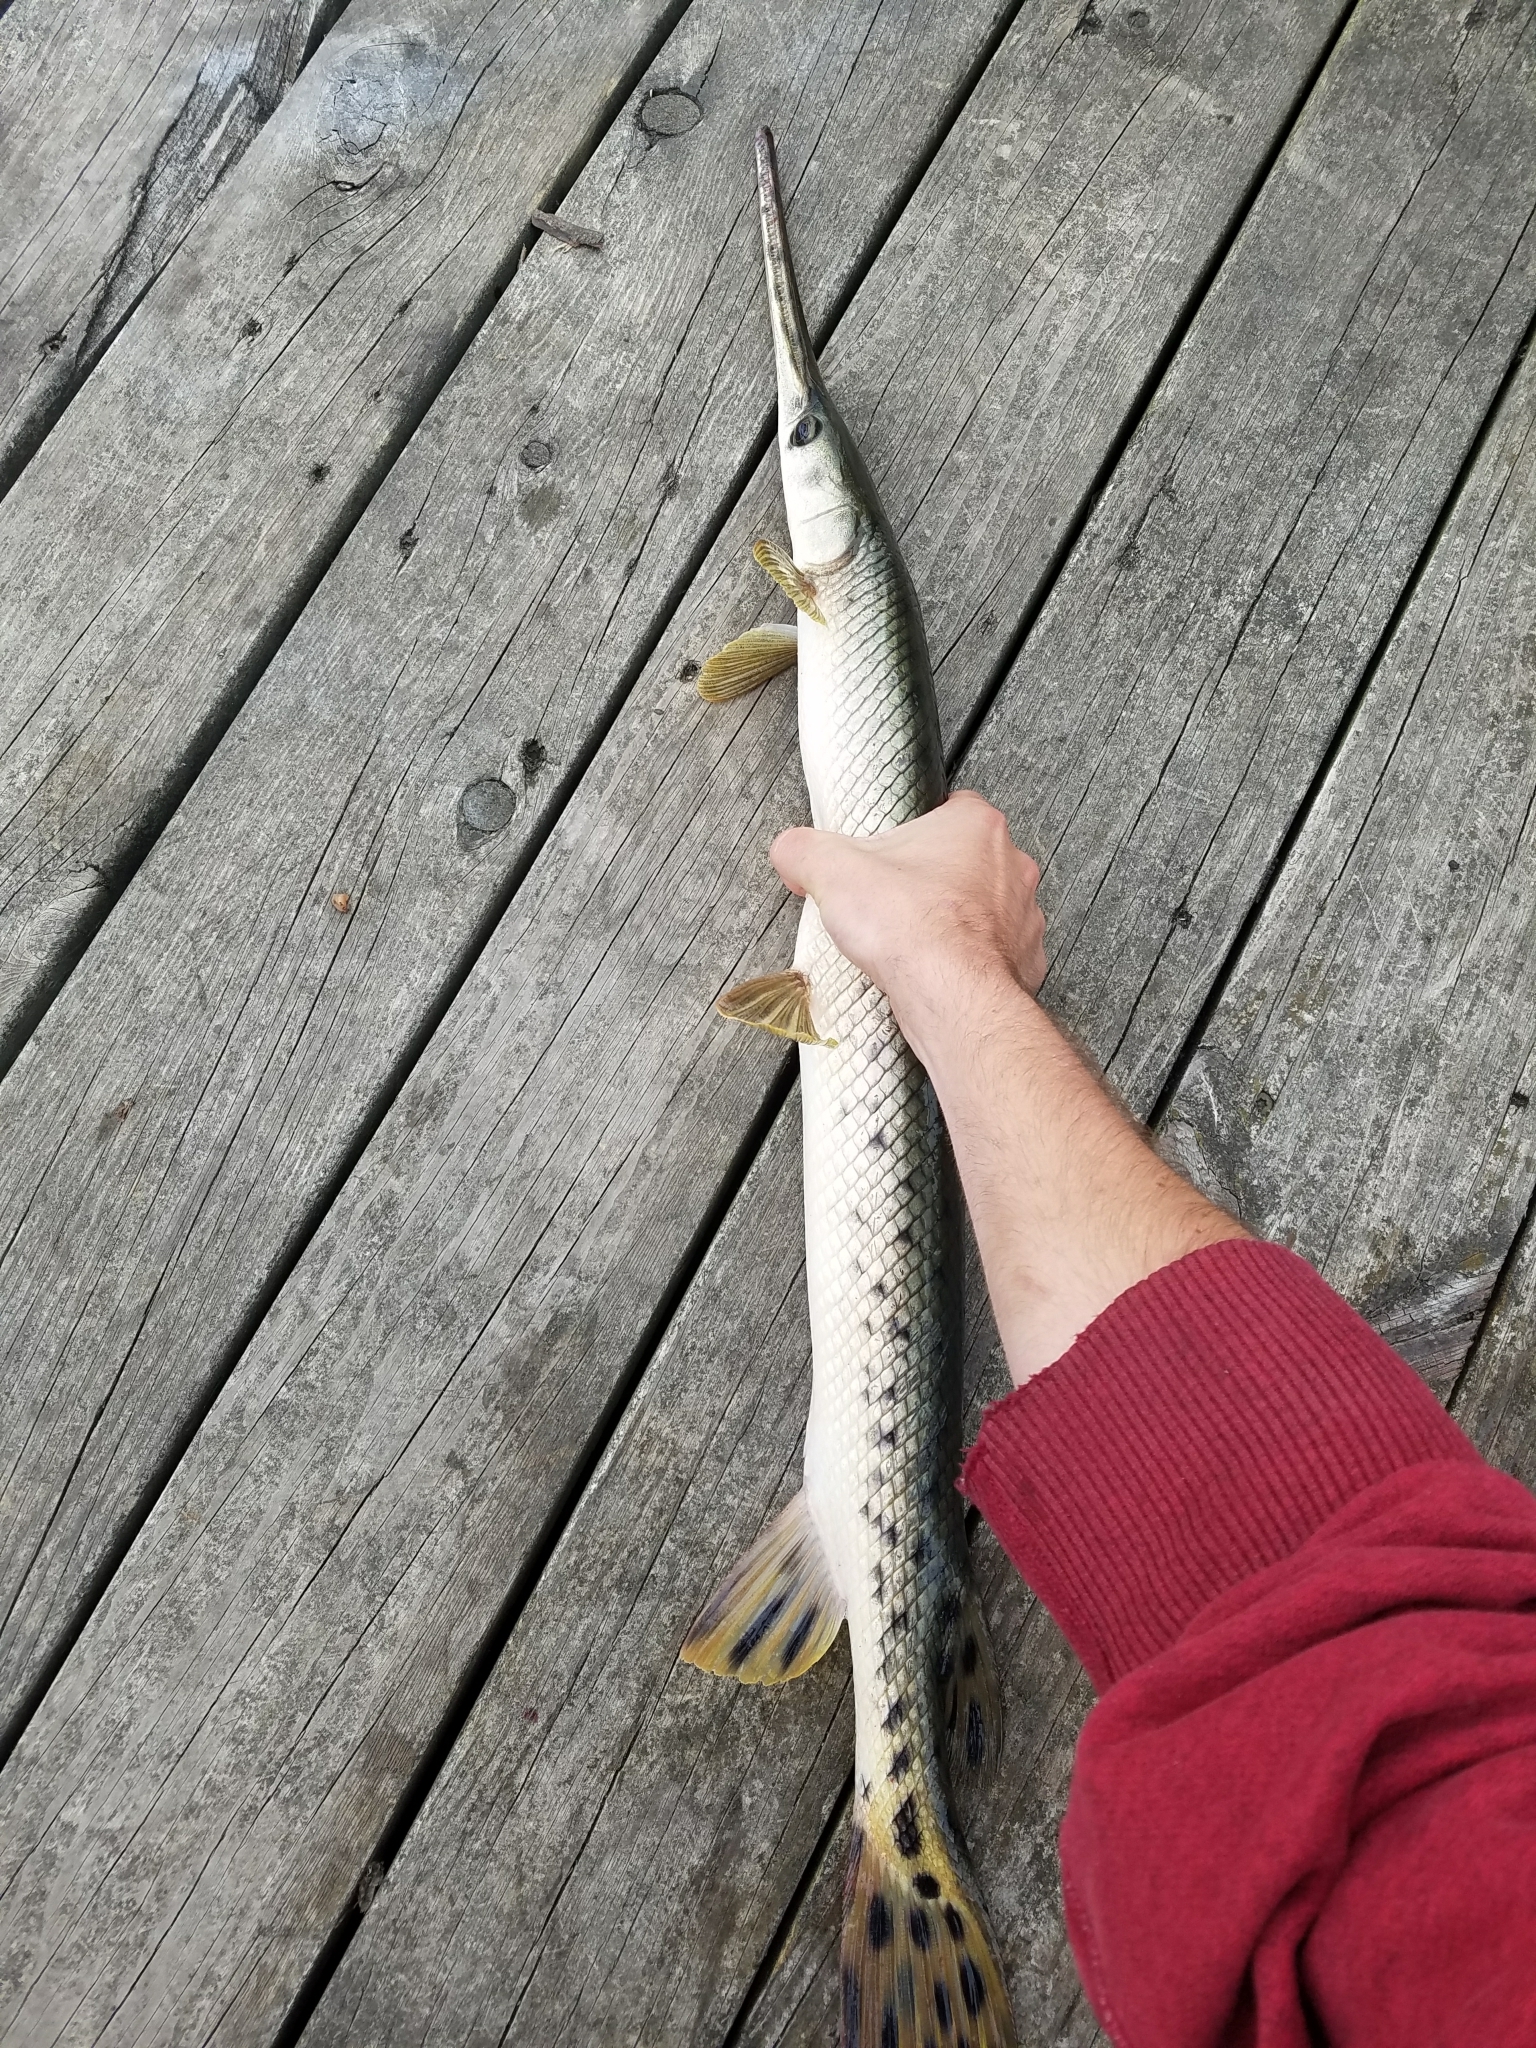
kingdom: Animalia
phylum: Chordata
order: Lepisosteiformes
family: Lepisosteidae
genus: Lepisosteus
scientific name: Lepisosteus osseus
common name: Longnose gar
